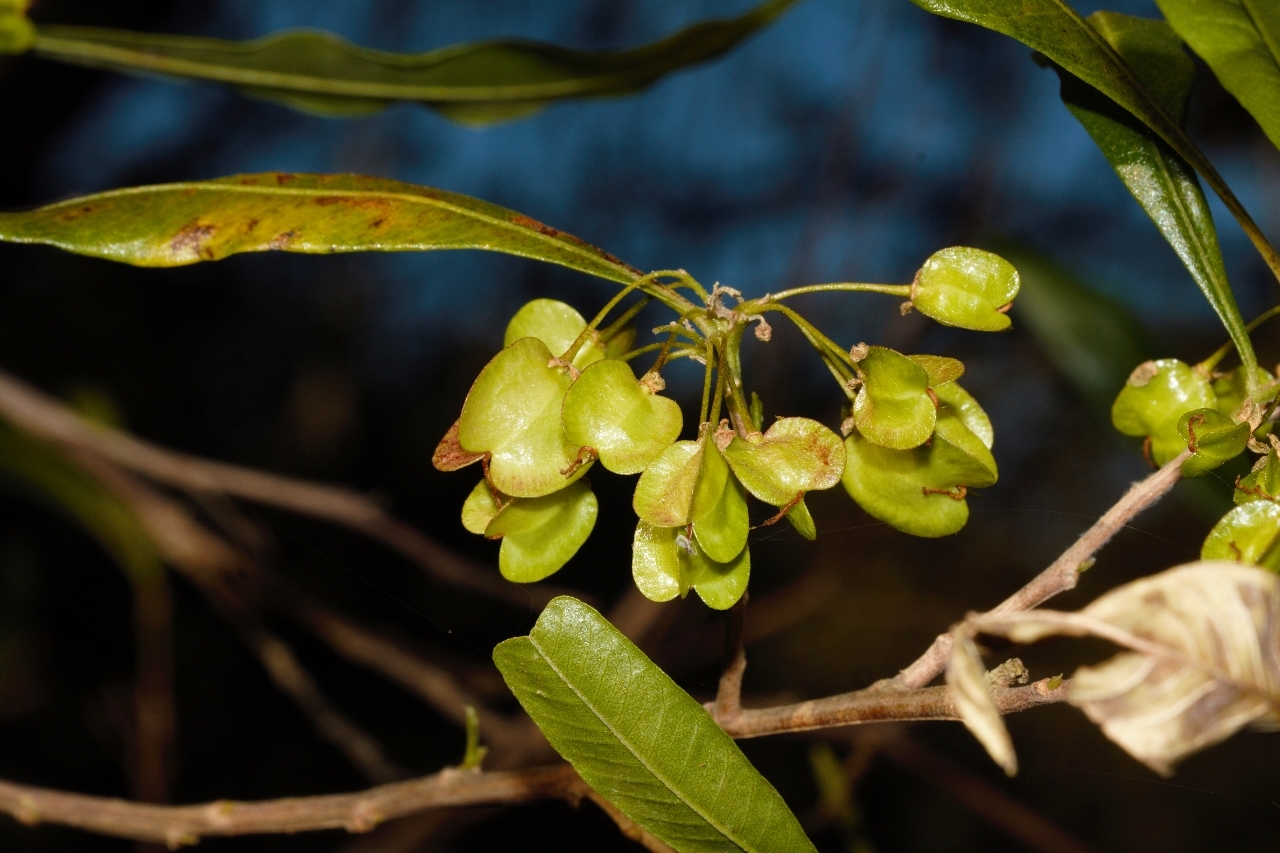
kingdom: Plantae
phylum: Tracheophyta
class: Magnoliopsida
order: Sapindales
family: Sapindaceae
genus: Dodonaea
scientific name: Dodonaea viscosa
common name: Hopbush
